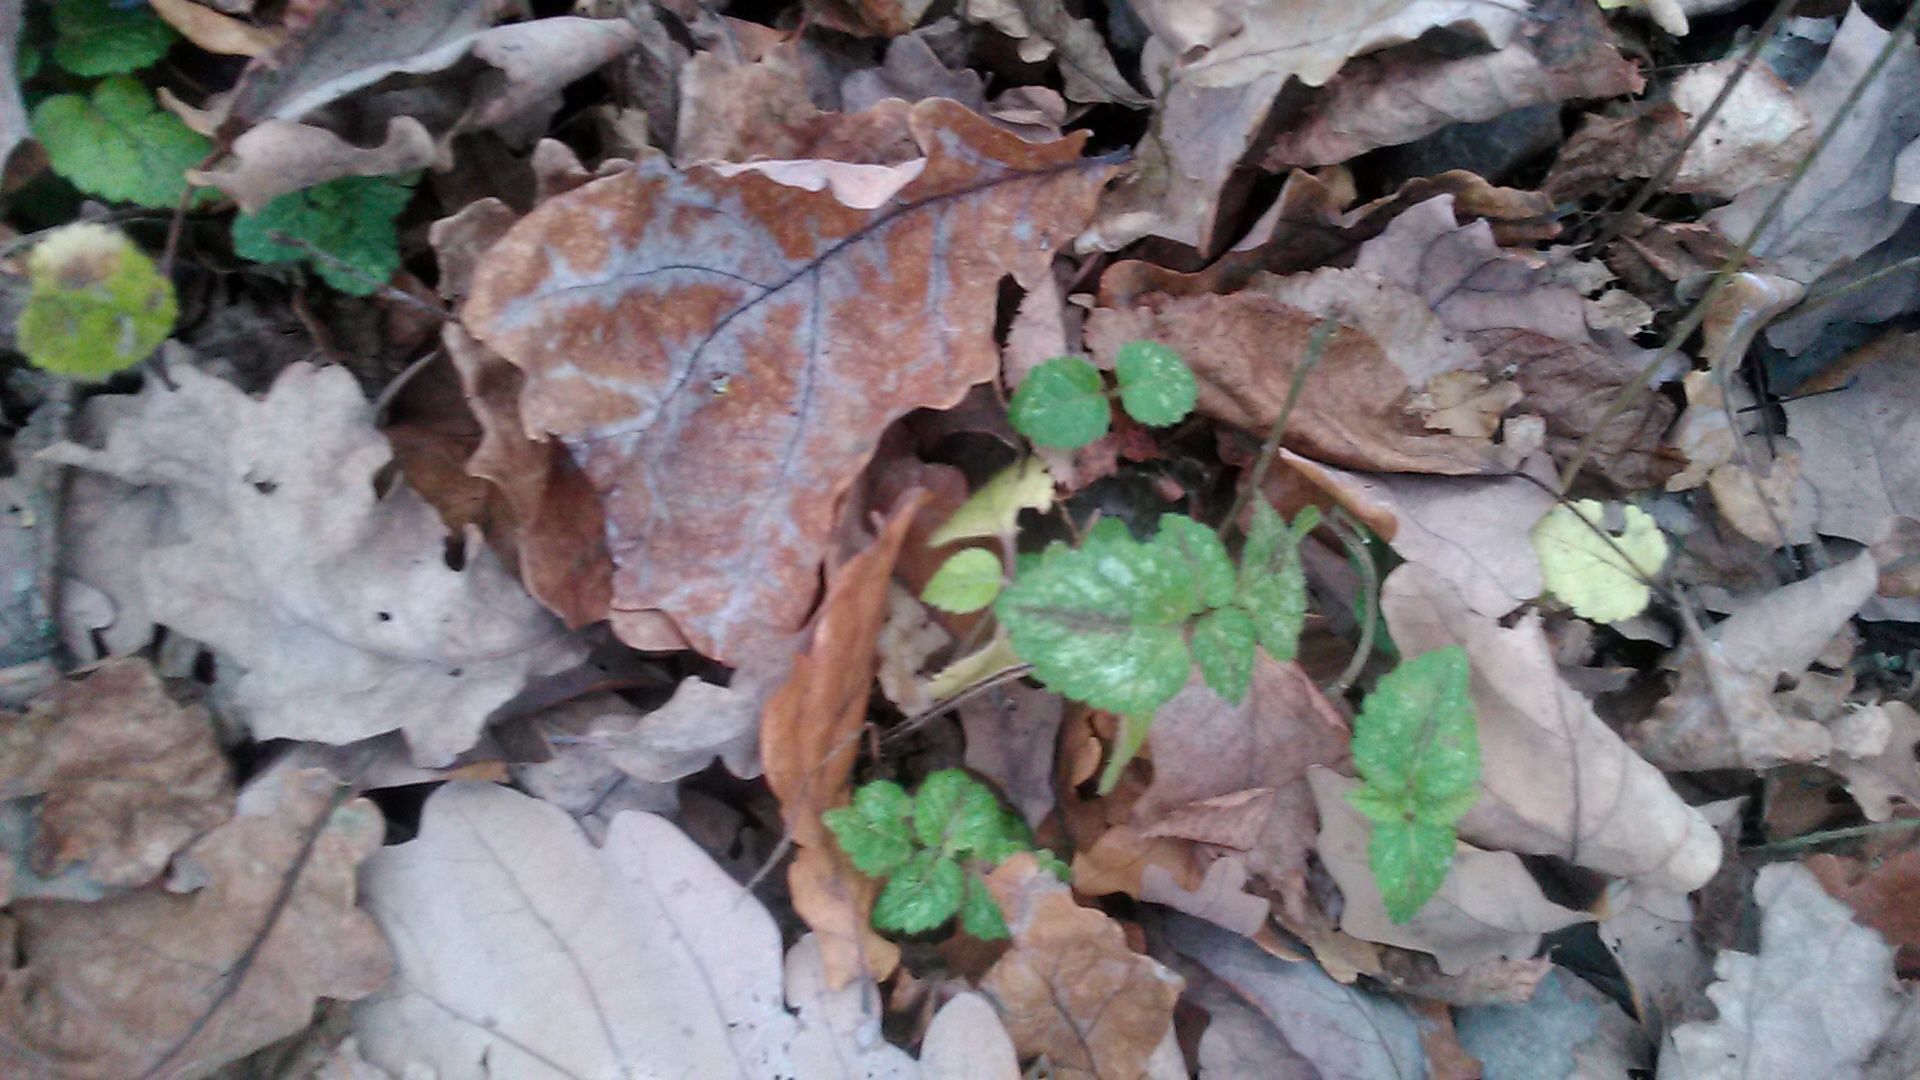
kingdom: Plantae
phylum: Tracheophyta
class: Magnoliopsida
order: Lamiales
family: Lamiaceae
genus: Lamium
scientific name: Lamium galeobdolon
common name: Yellow archangel
